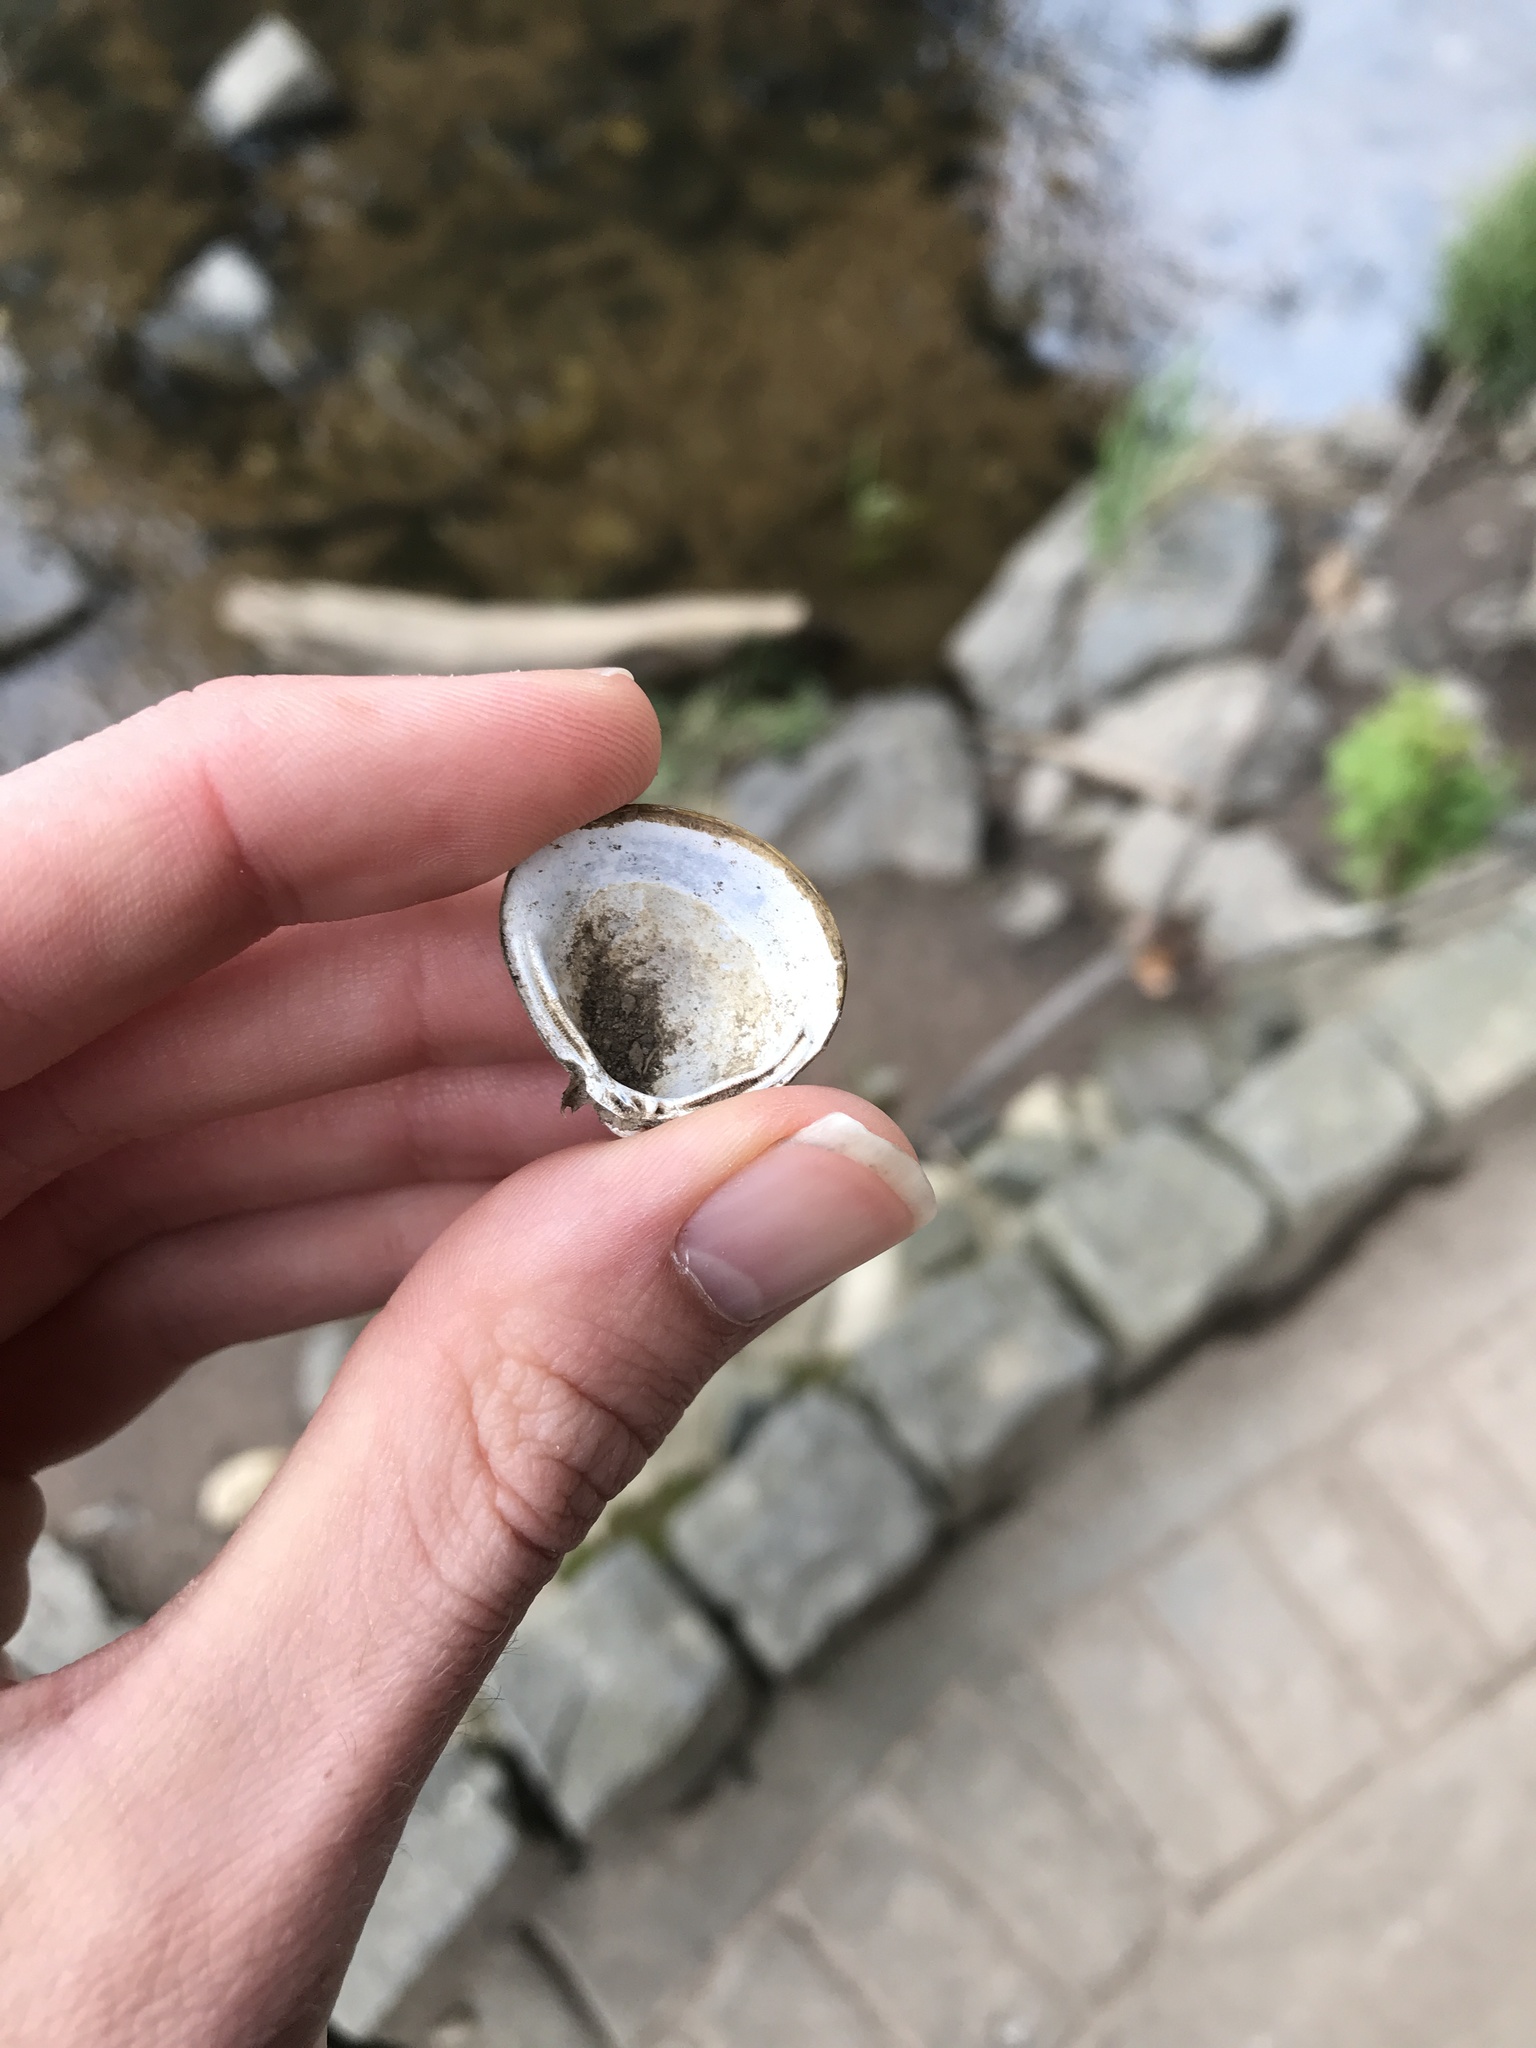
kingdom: Animalia
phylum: Mollusca
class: Bivalvia
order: Venerida
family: Cyrenidae
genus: Corbicula
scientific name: Corbicula fluminea
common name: Asian clam
